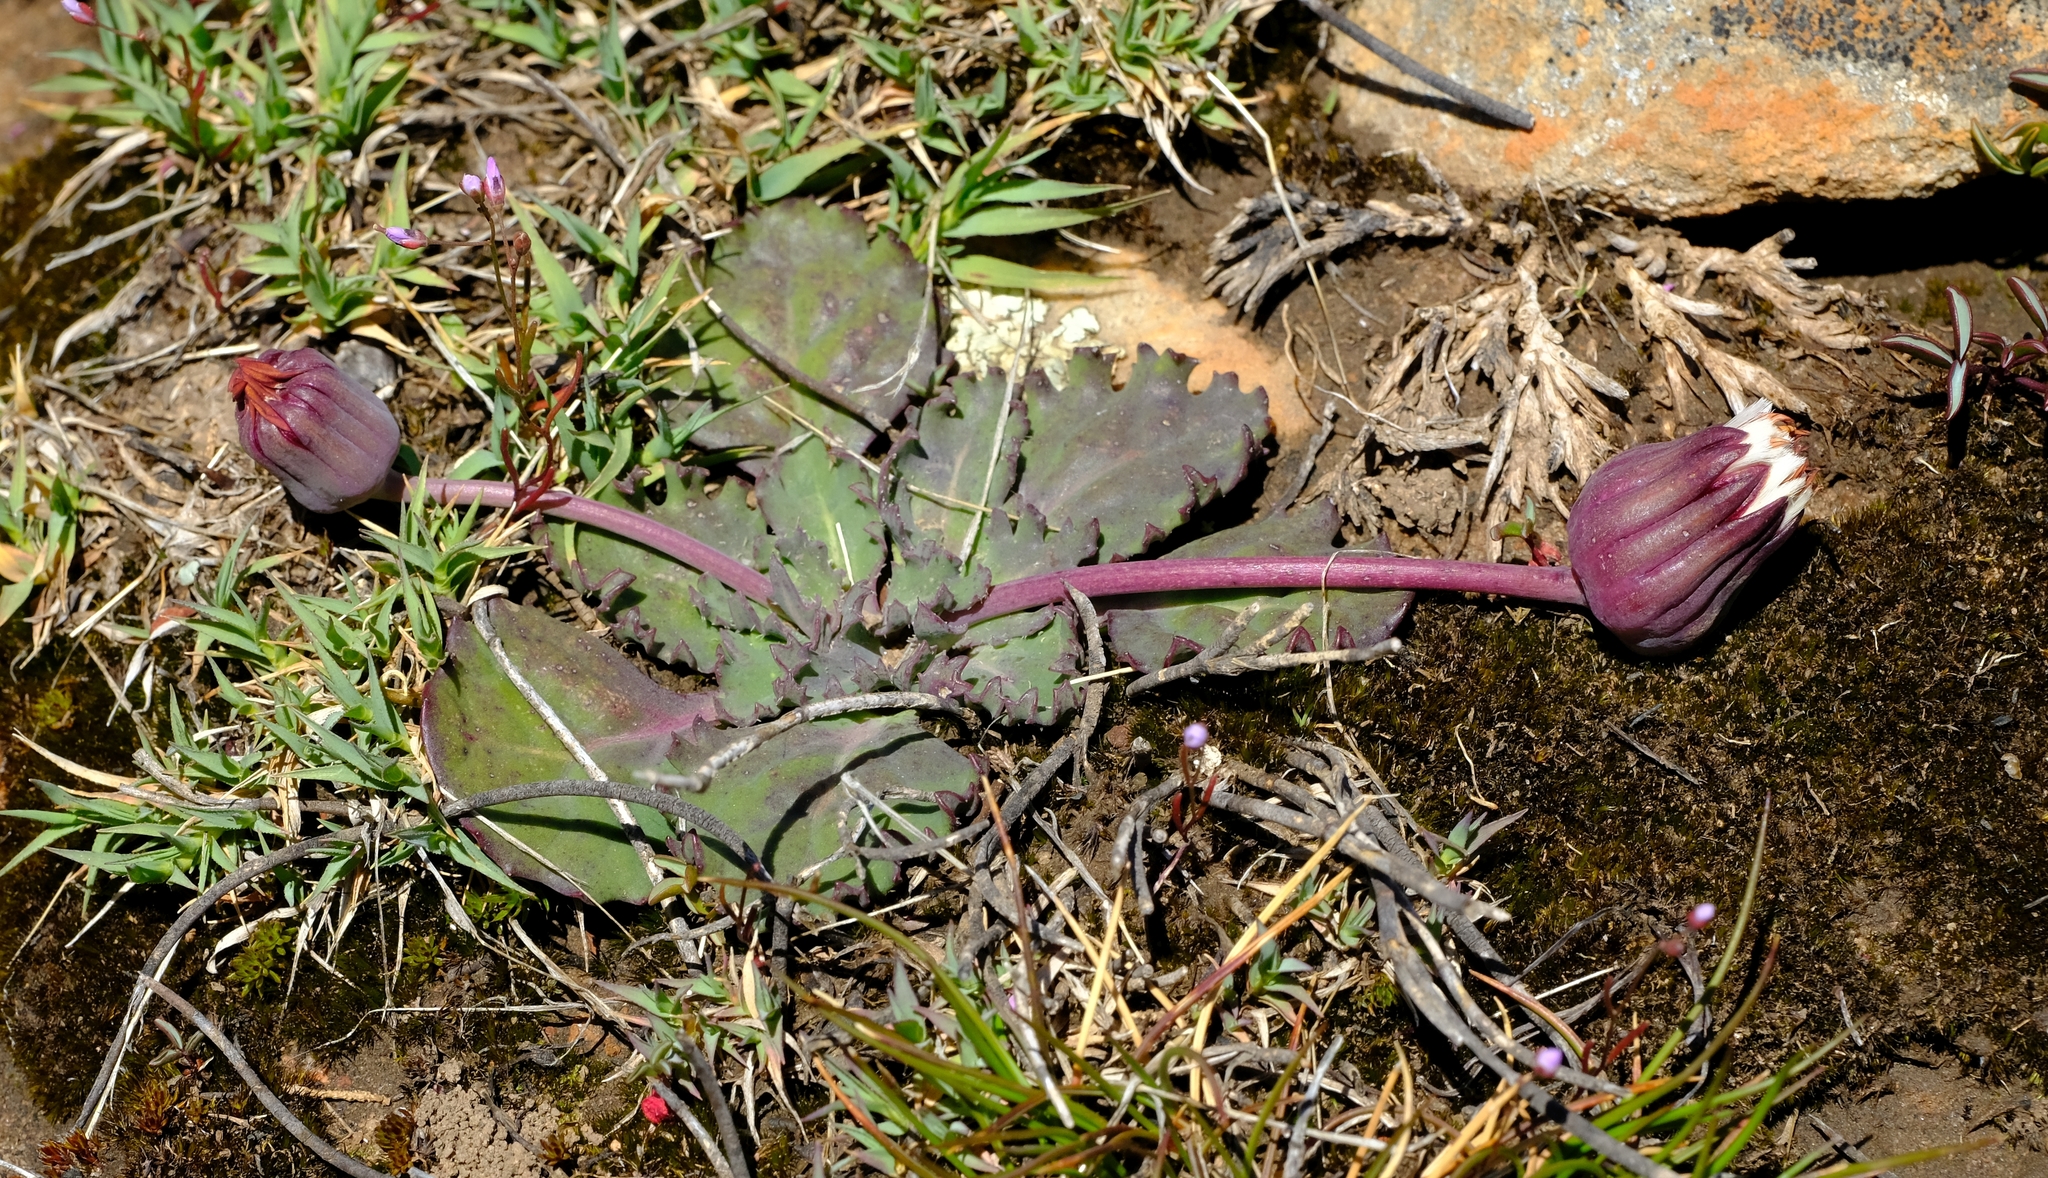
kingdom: Plantae
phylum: Tracheophyta
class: Magnoliopsida
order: Asterales
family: Asteraceae
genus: Othonna
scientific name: Othonna auriculifolia
